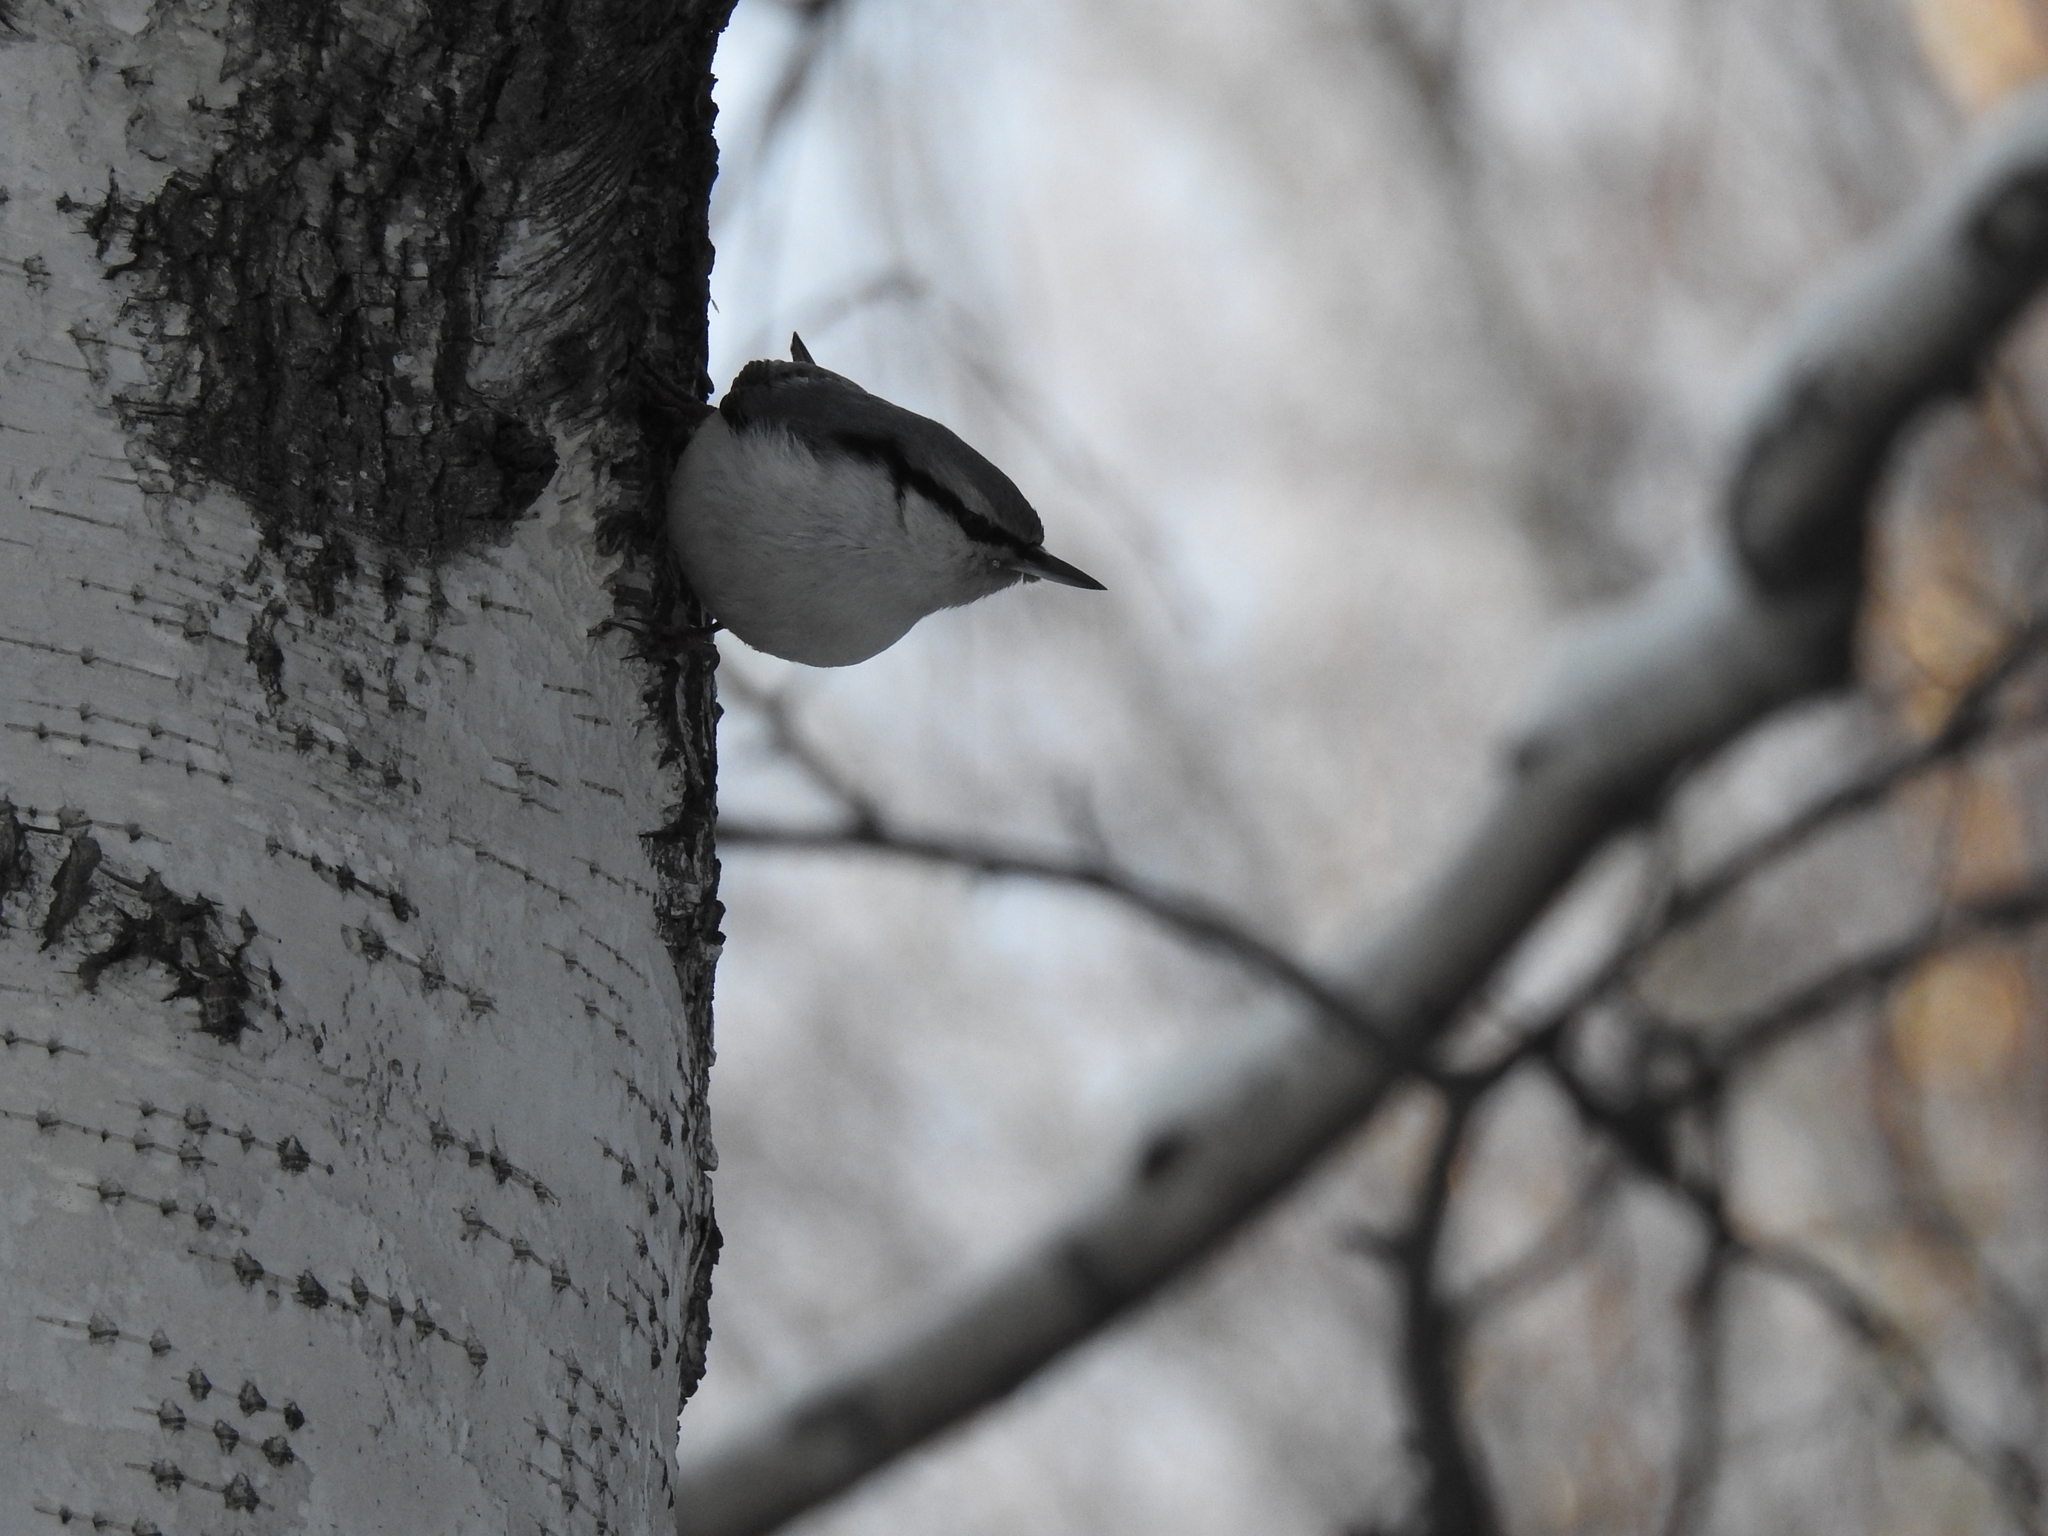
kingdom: Animalia
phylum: Chordata
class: Aves
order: Passeriformes
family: Sittidae
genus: Sitta
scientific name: Sitta europaea
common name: Eurasian nuthatch
